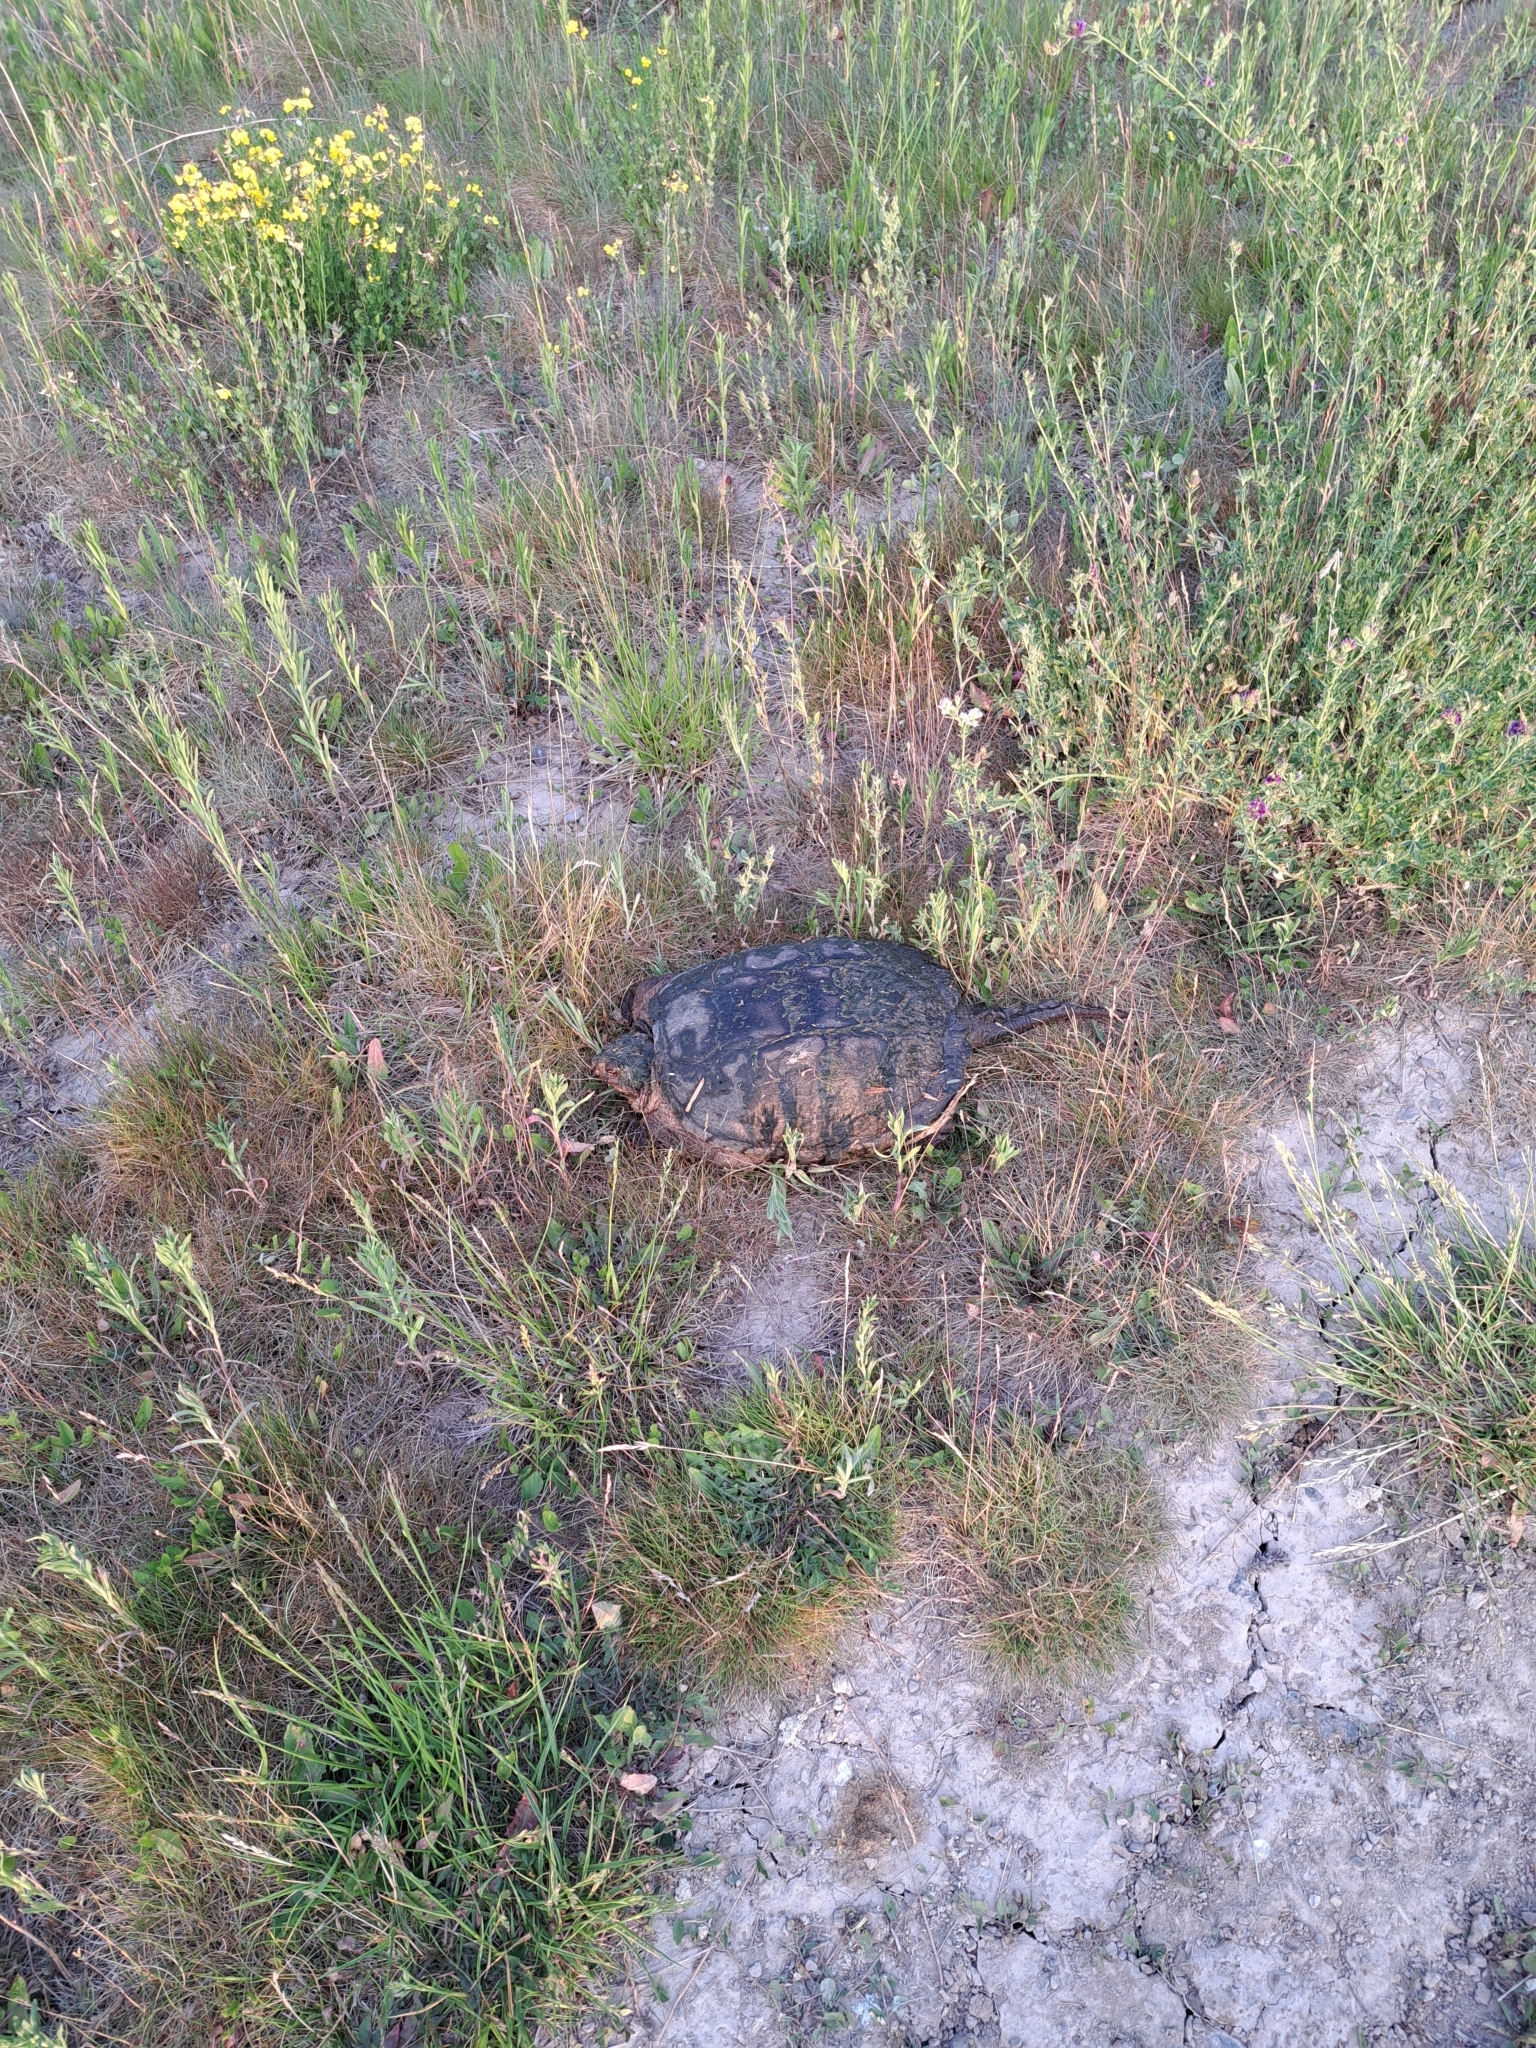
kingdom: Animalia
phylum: Chordata
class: Testudines
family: Chelydridae
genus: Chelydra
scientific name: Chelydra serpentina
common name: Common snapping turtle
